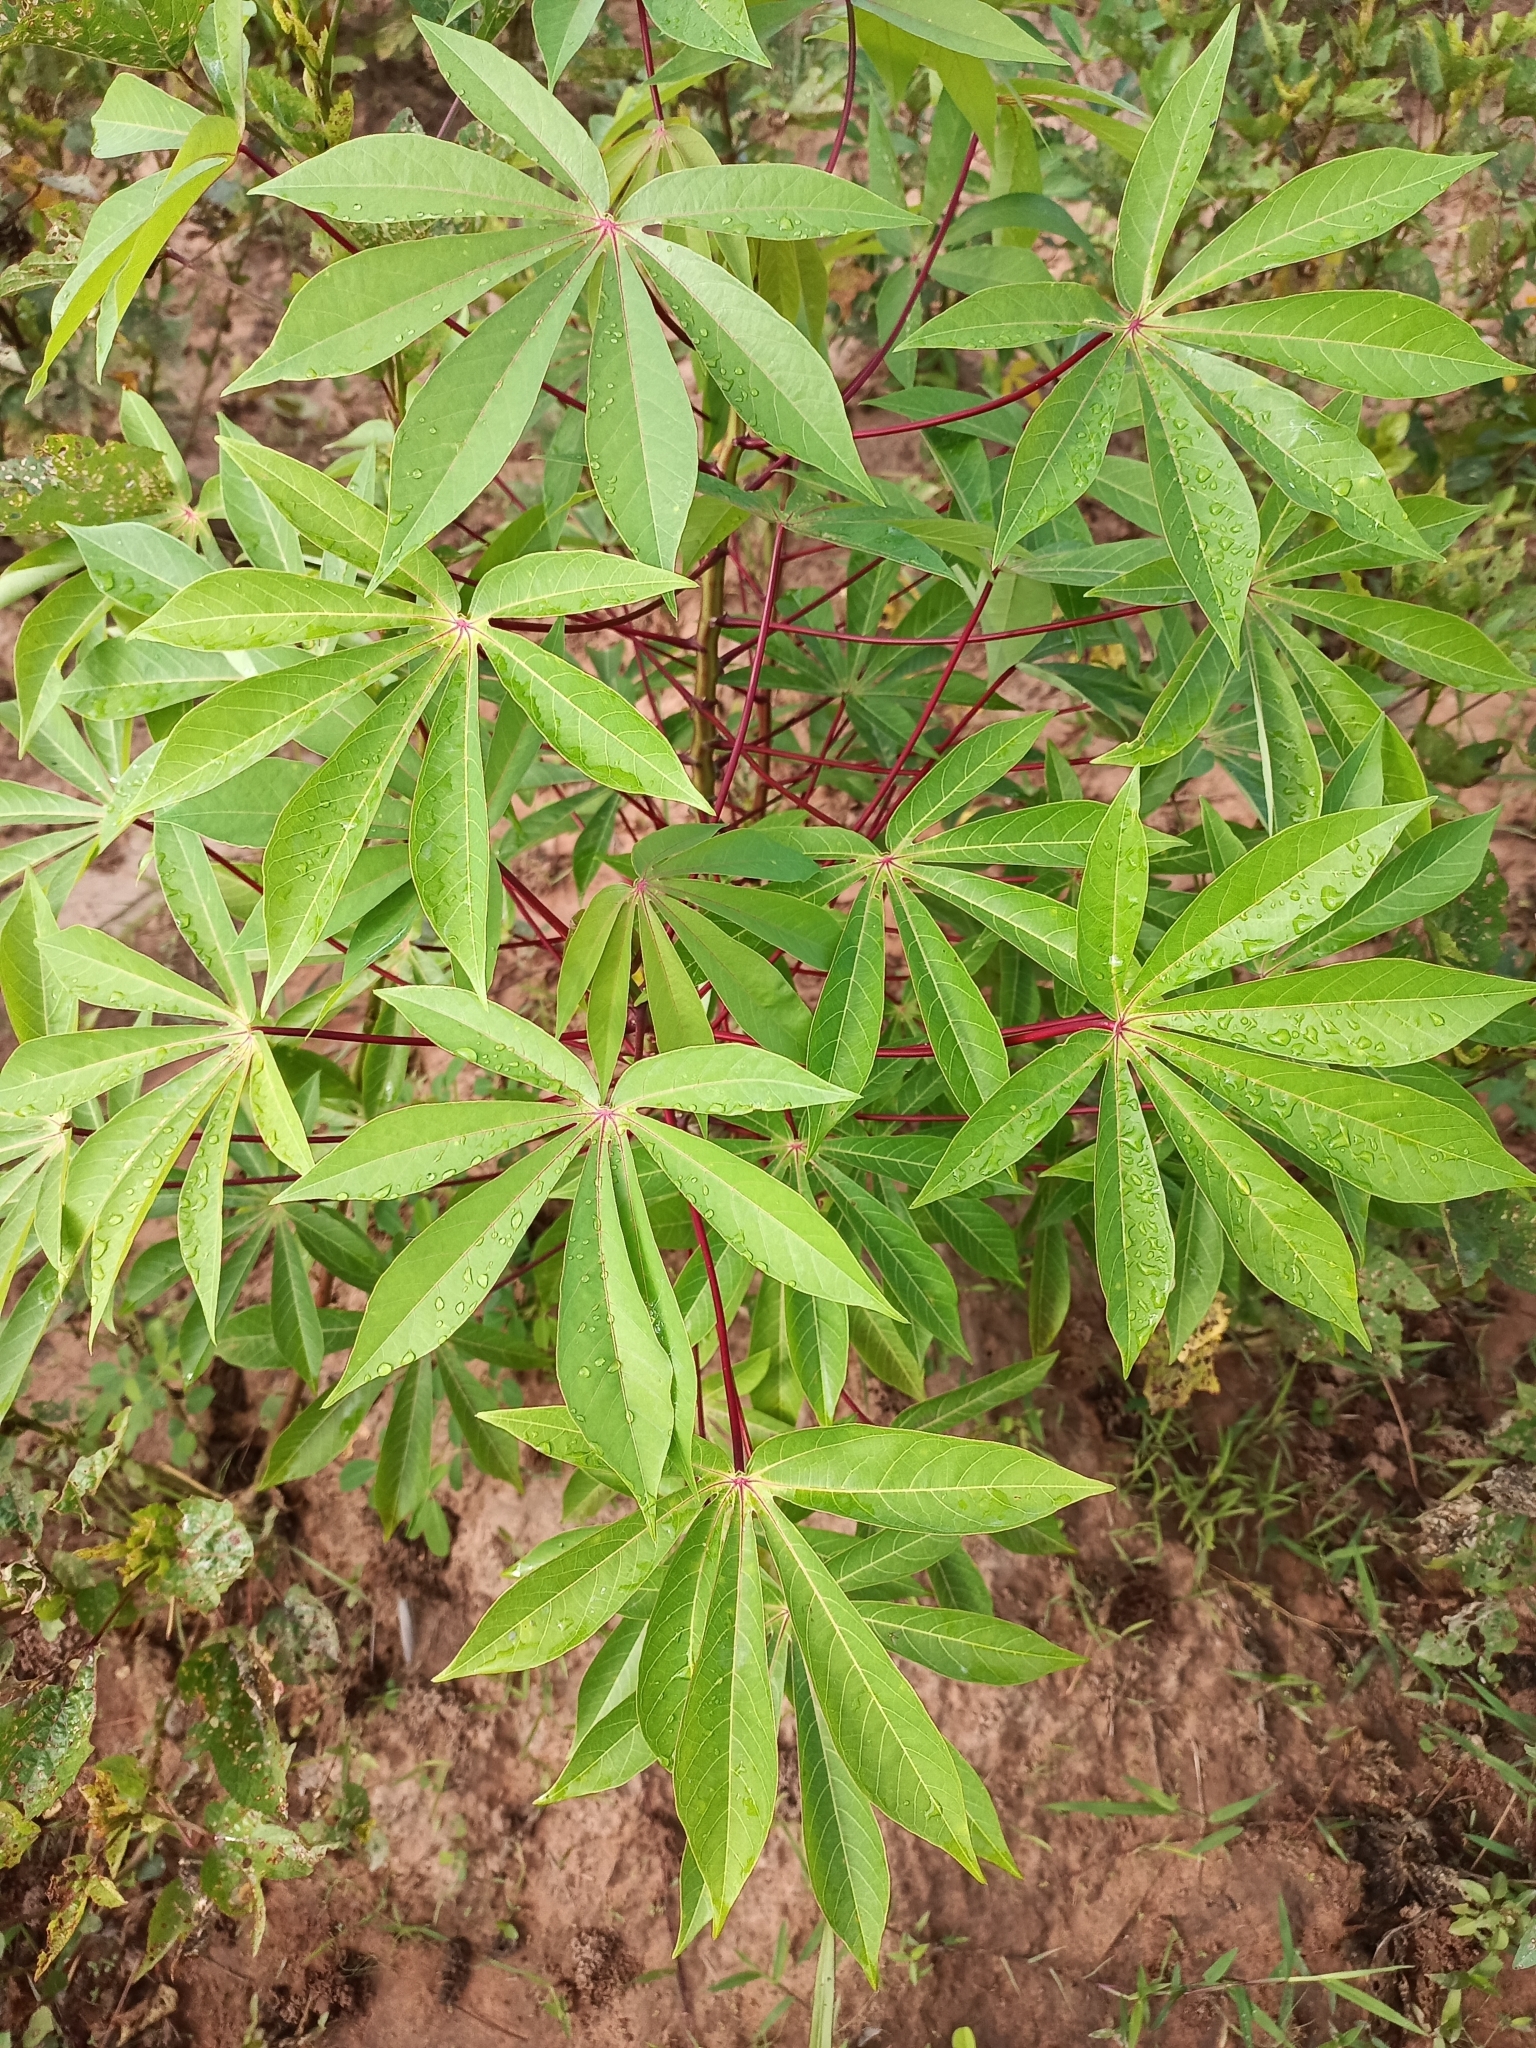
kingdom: Plantae
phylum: Tracheophyta
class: Magnoliopsida
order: Malpighiales
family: Euphorbiaceae
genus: Manihot
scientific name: Manihot esculenta
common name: Cassava
